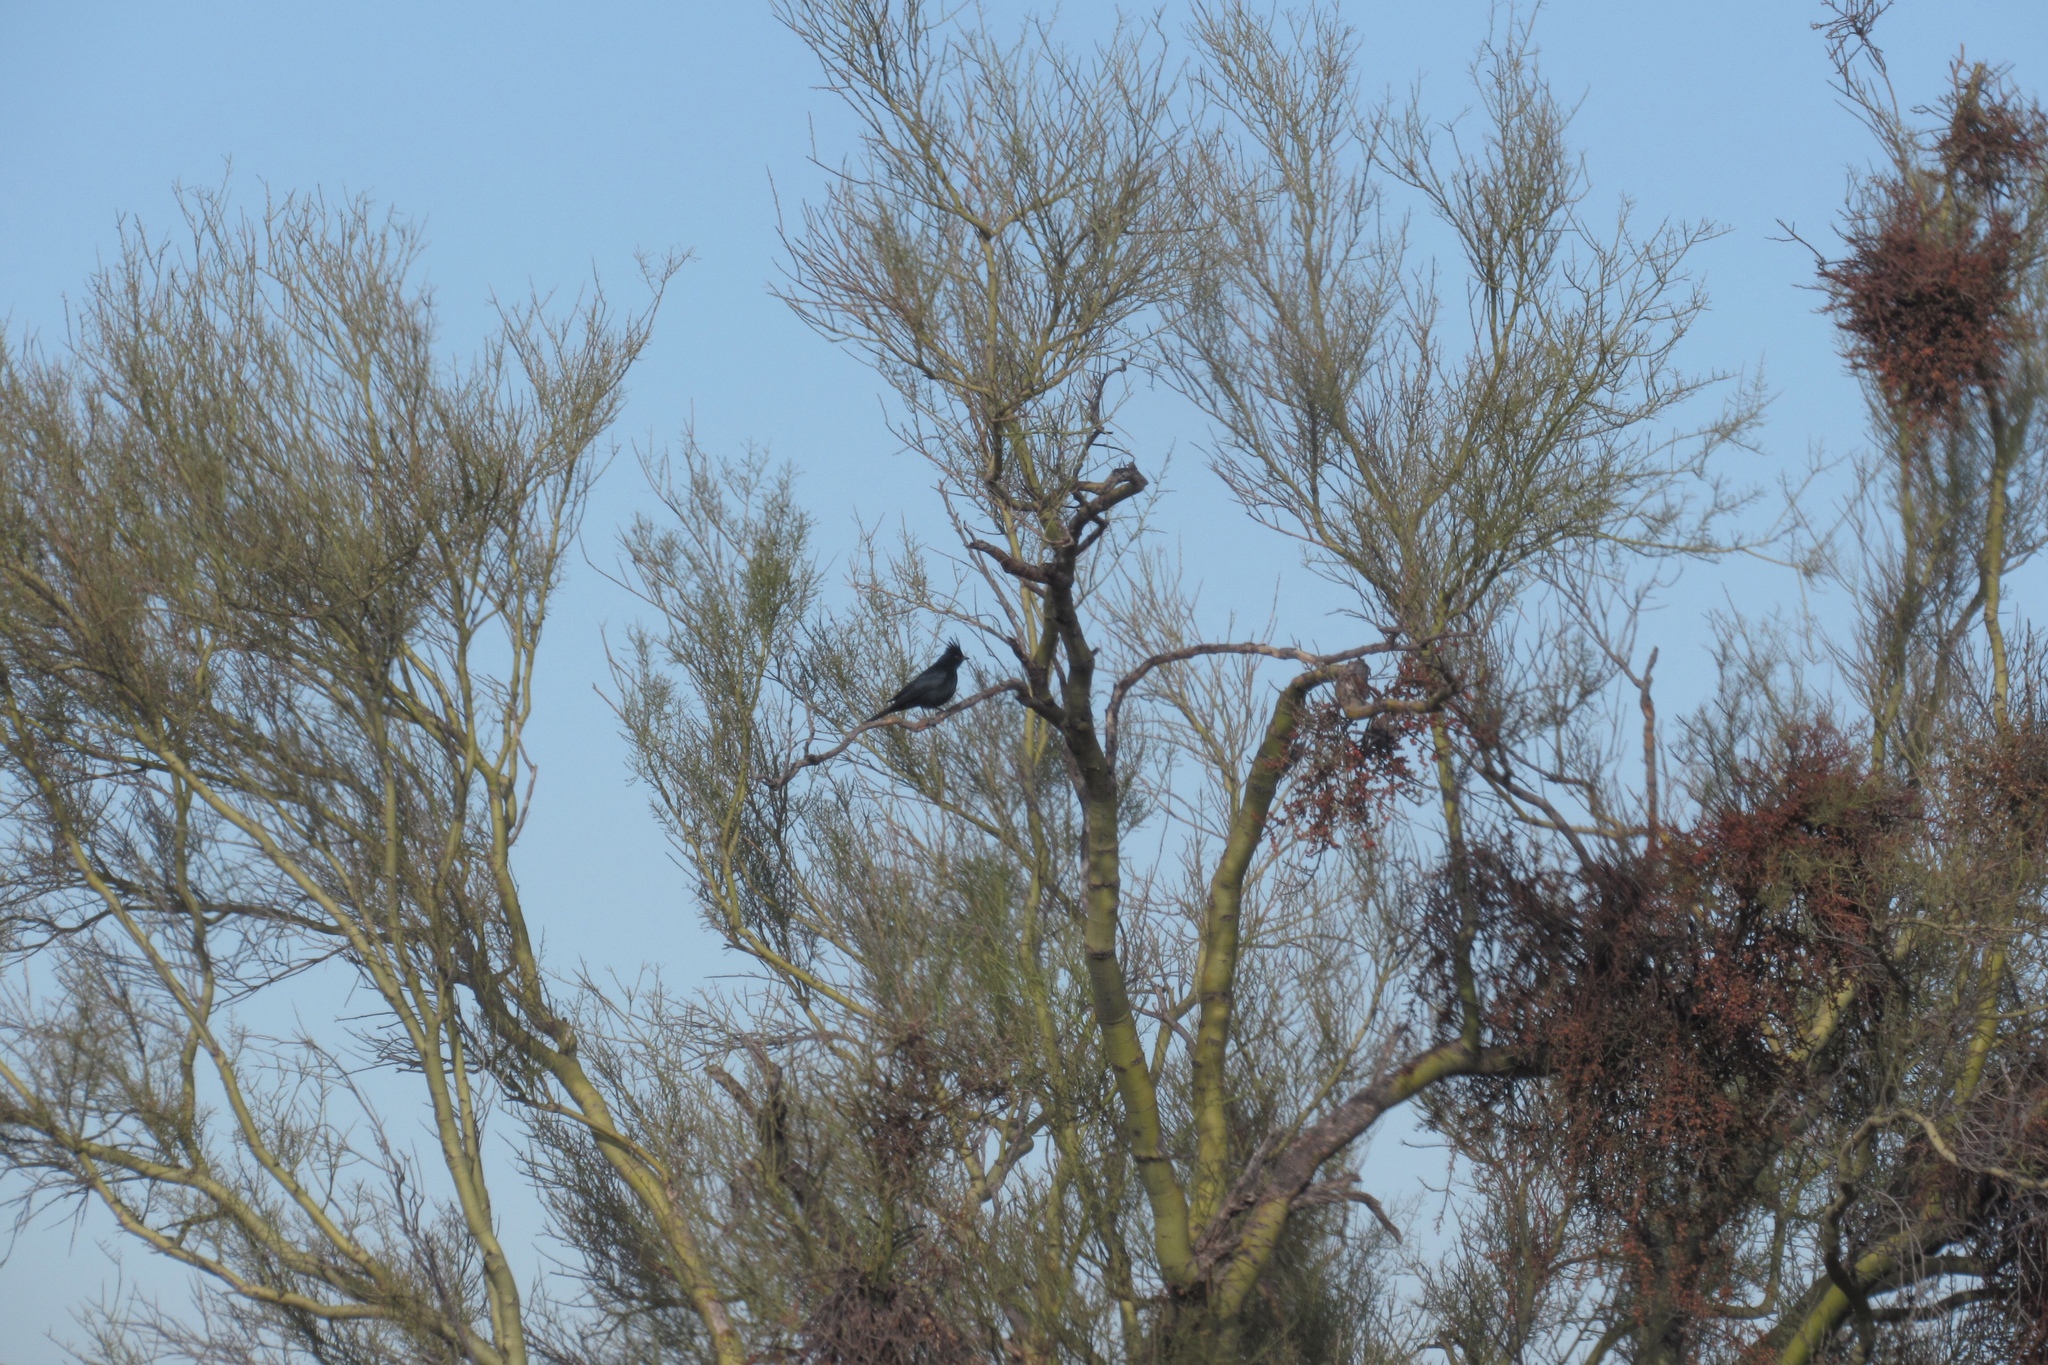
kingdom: Animalia
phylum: Chordata
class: Aves
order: Passeriformes
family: Ptilogonatidae
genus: Phainopepla
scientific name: Phainopepla nitens
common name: Phainopepla
